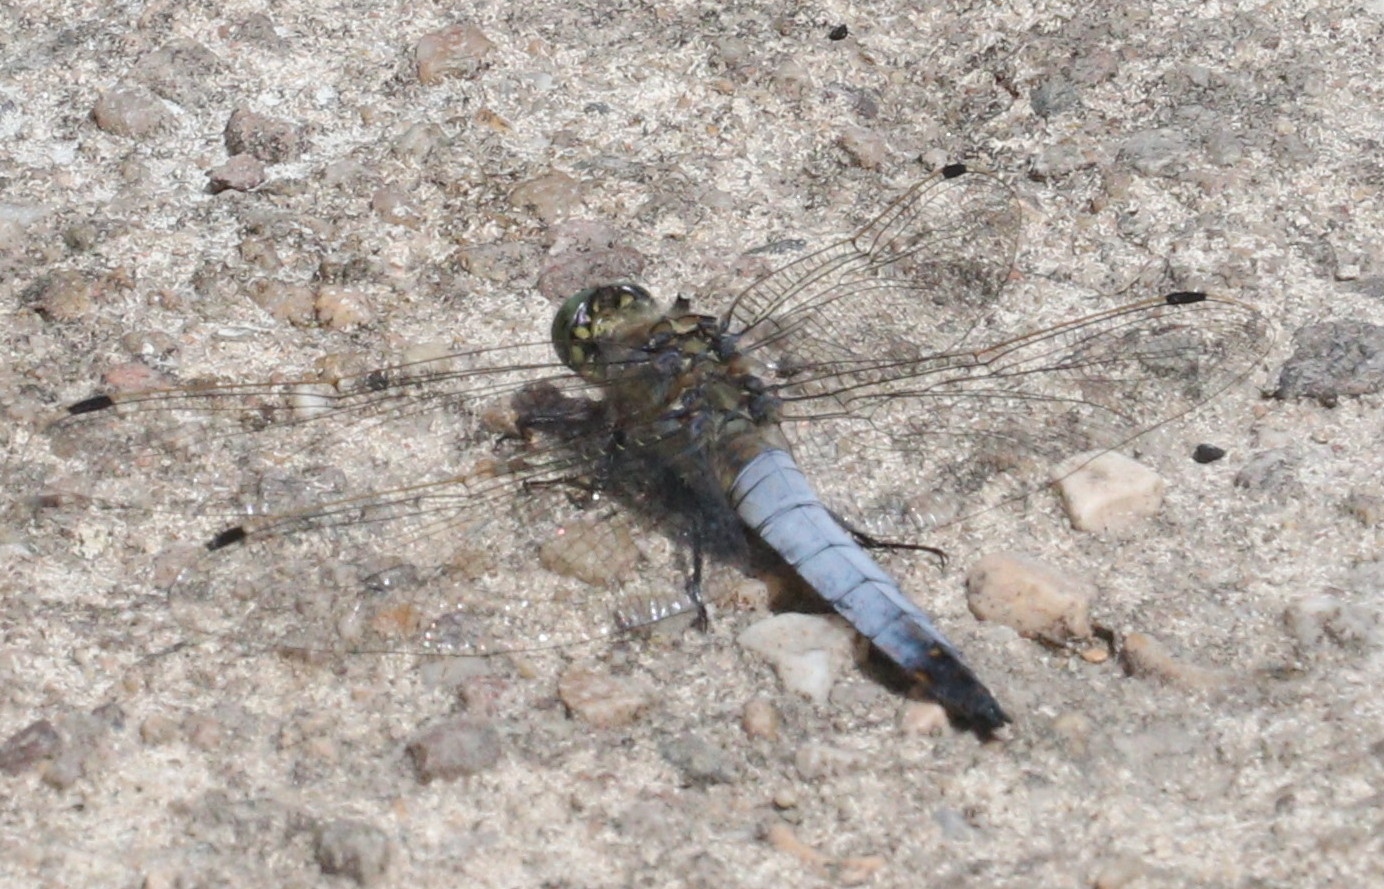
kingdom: Animalia
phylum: Arthropoda
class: Insecta
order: Odonata
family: Libellulidae
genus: Orthetrum
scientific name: Orthetrum cancellatum
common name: Black-tailed skimmer
